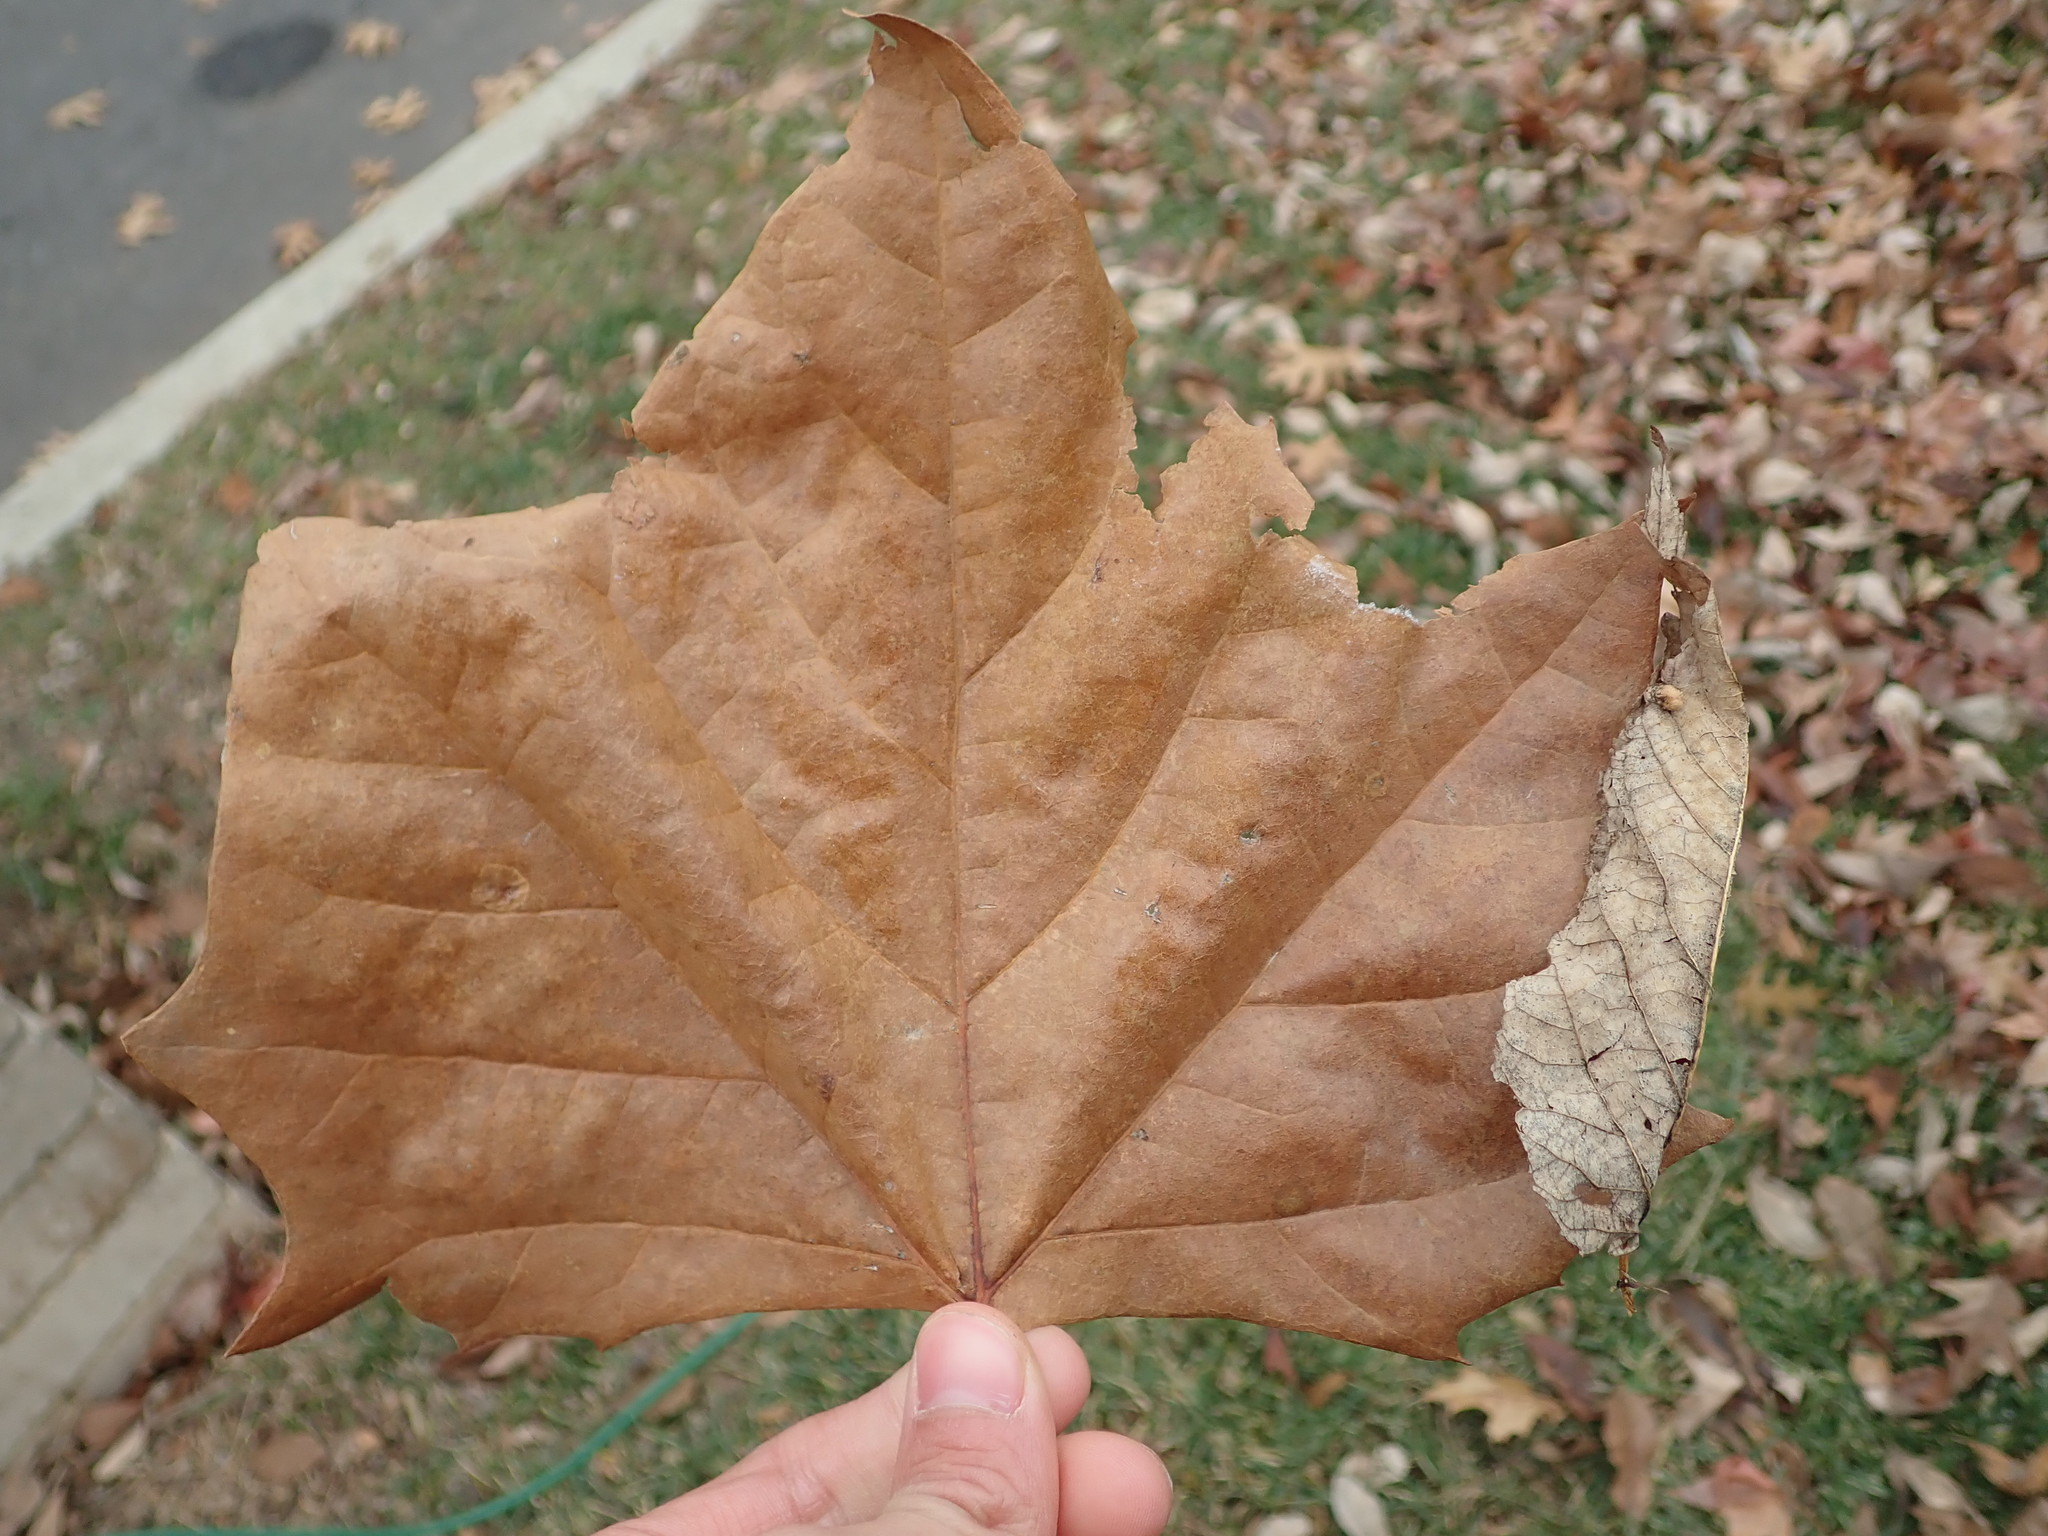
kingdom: Plantae
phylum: Tracheophyta
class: Magnoliopsida
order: Proteales
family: Platanaceae
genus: Platanus
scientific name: Platanus occidentalis
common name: American sycamore
